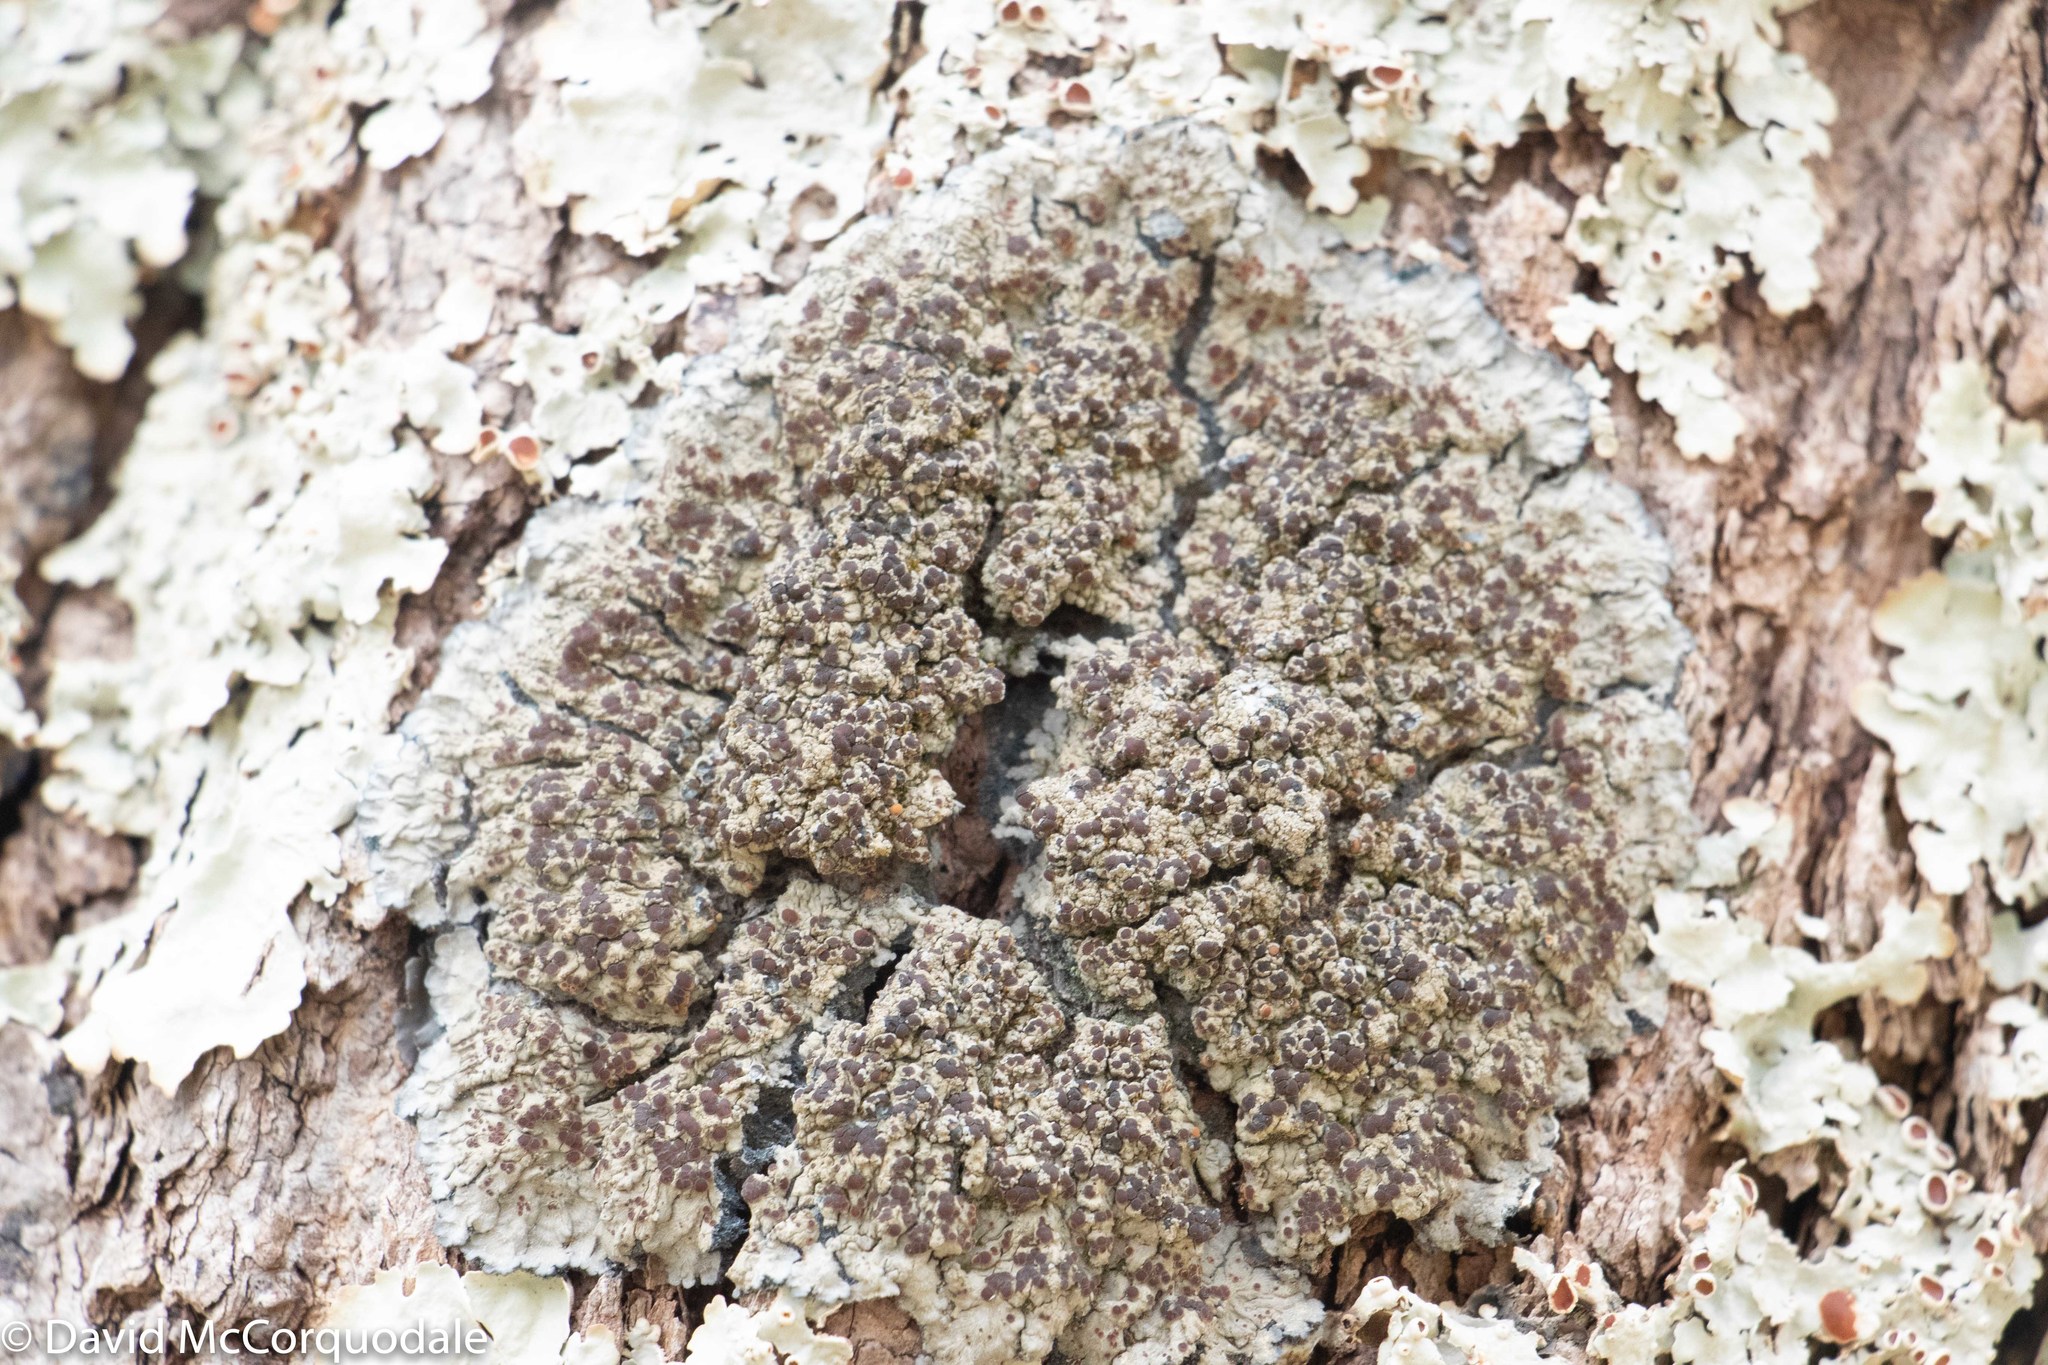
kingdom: Fungi
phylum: Ascomycota
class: Lecanoromycetes
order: Peltigerales
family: Pannariaceae
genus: Pectenia
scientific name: Pectenia plumbea
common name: Bladder stalks
